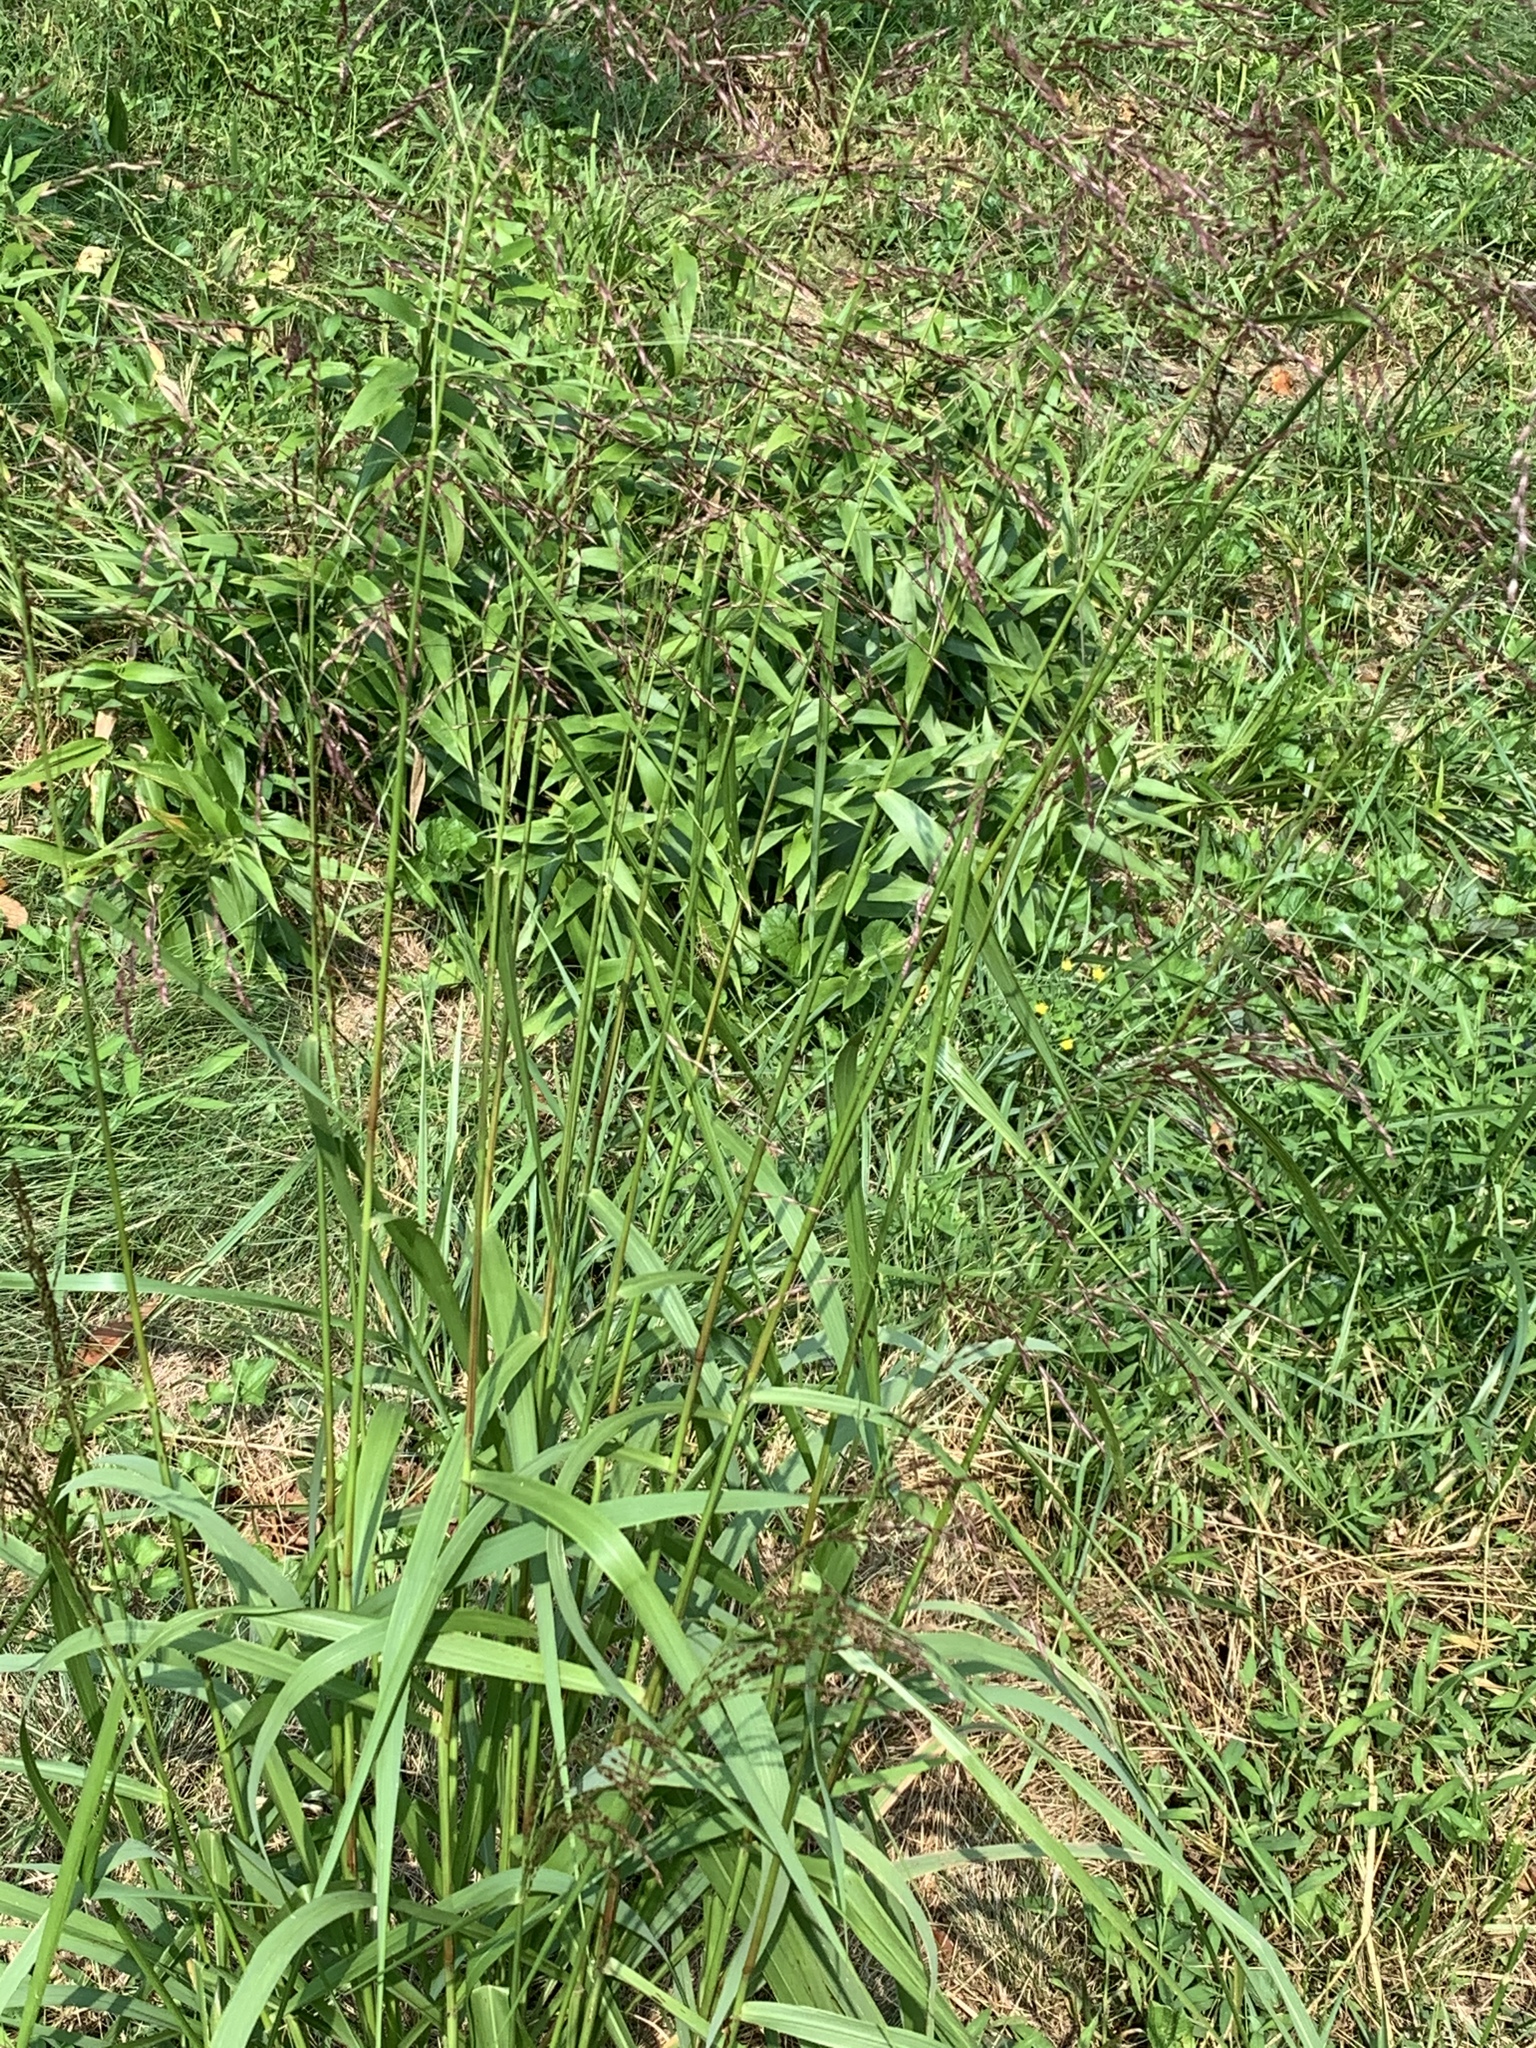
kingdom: Plantae
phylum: Tracheophyta
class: Liliopsida
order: Poales
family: Poaceae
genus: Tridens
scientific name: Tridens flavus
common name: Purpletop
